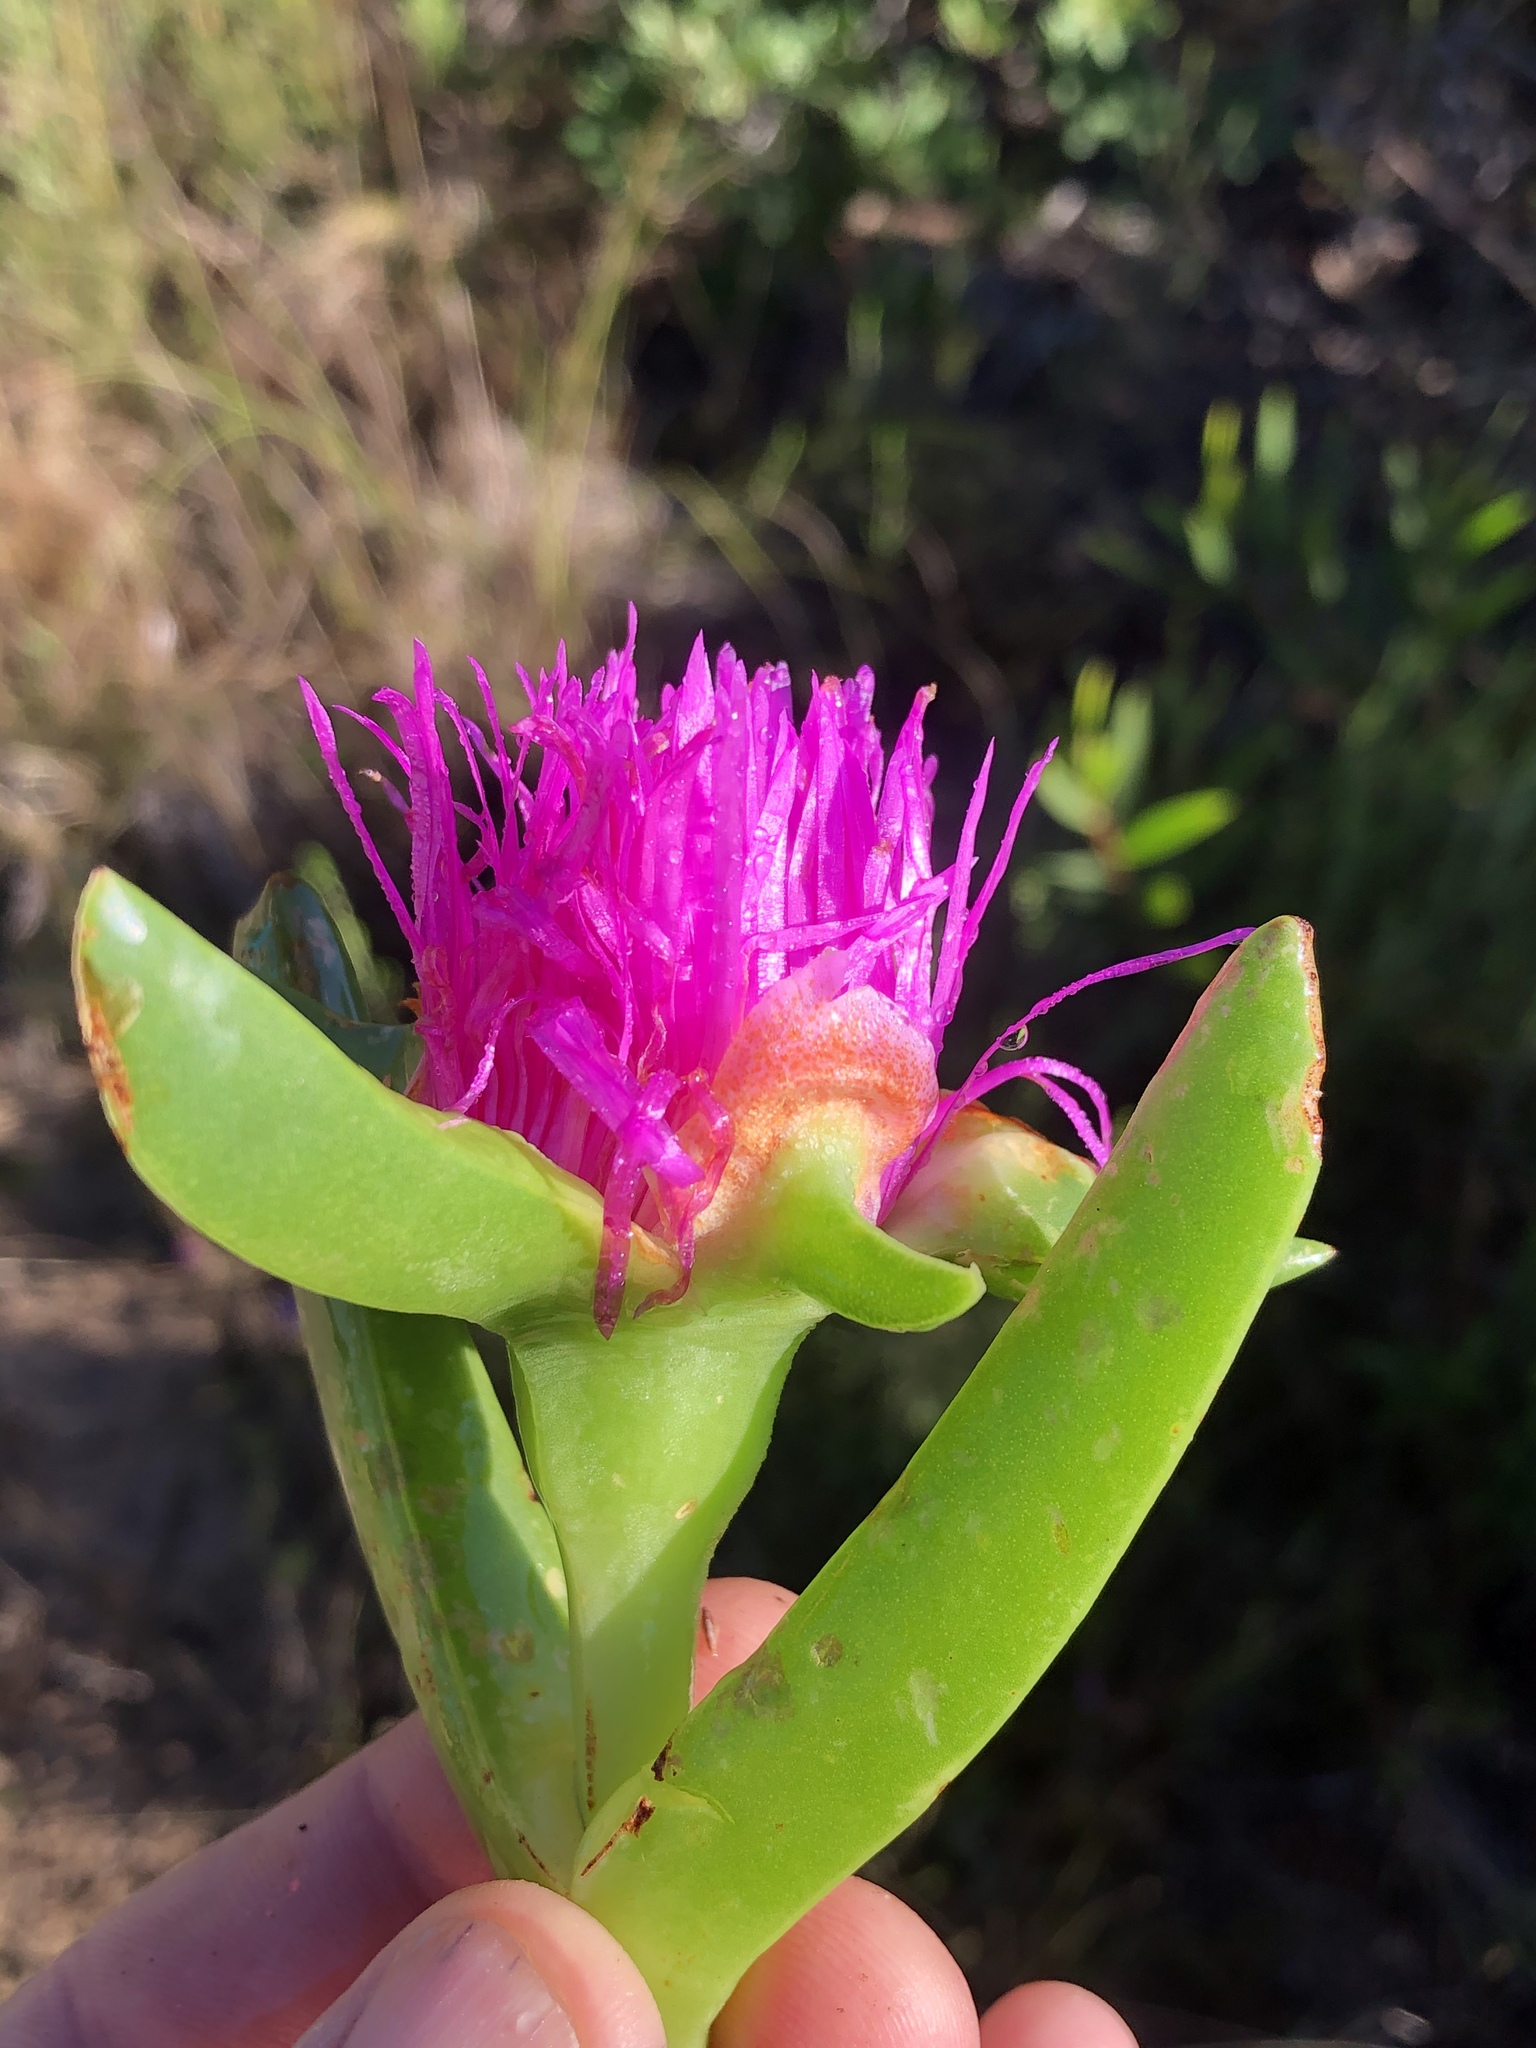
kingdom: Plantae
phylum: Tracheophyta
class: Magnoliopsida
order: Caryophyllales
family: Aizoaceae
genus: Carpobrotus
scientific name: Carpobrotus deliciosus
